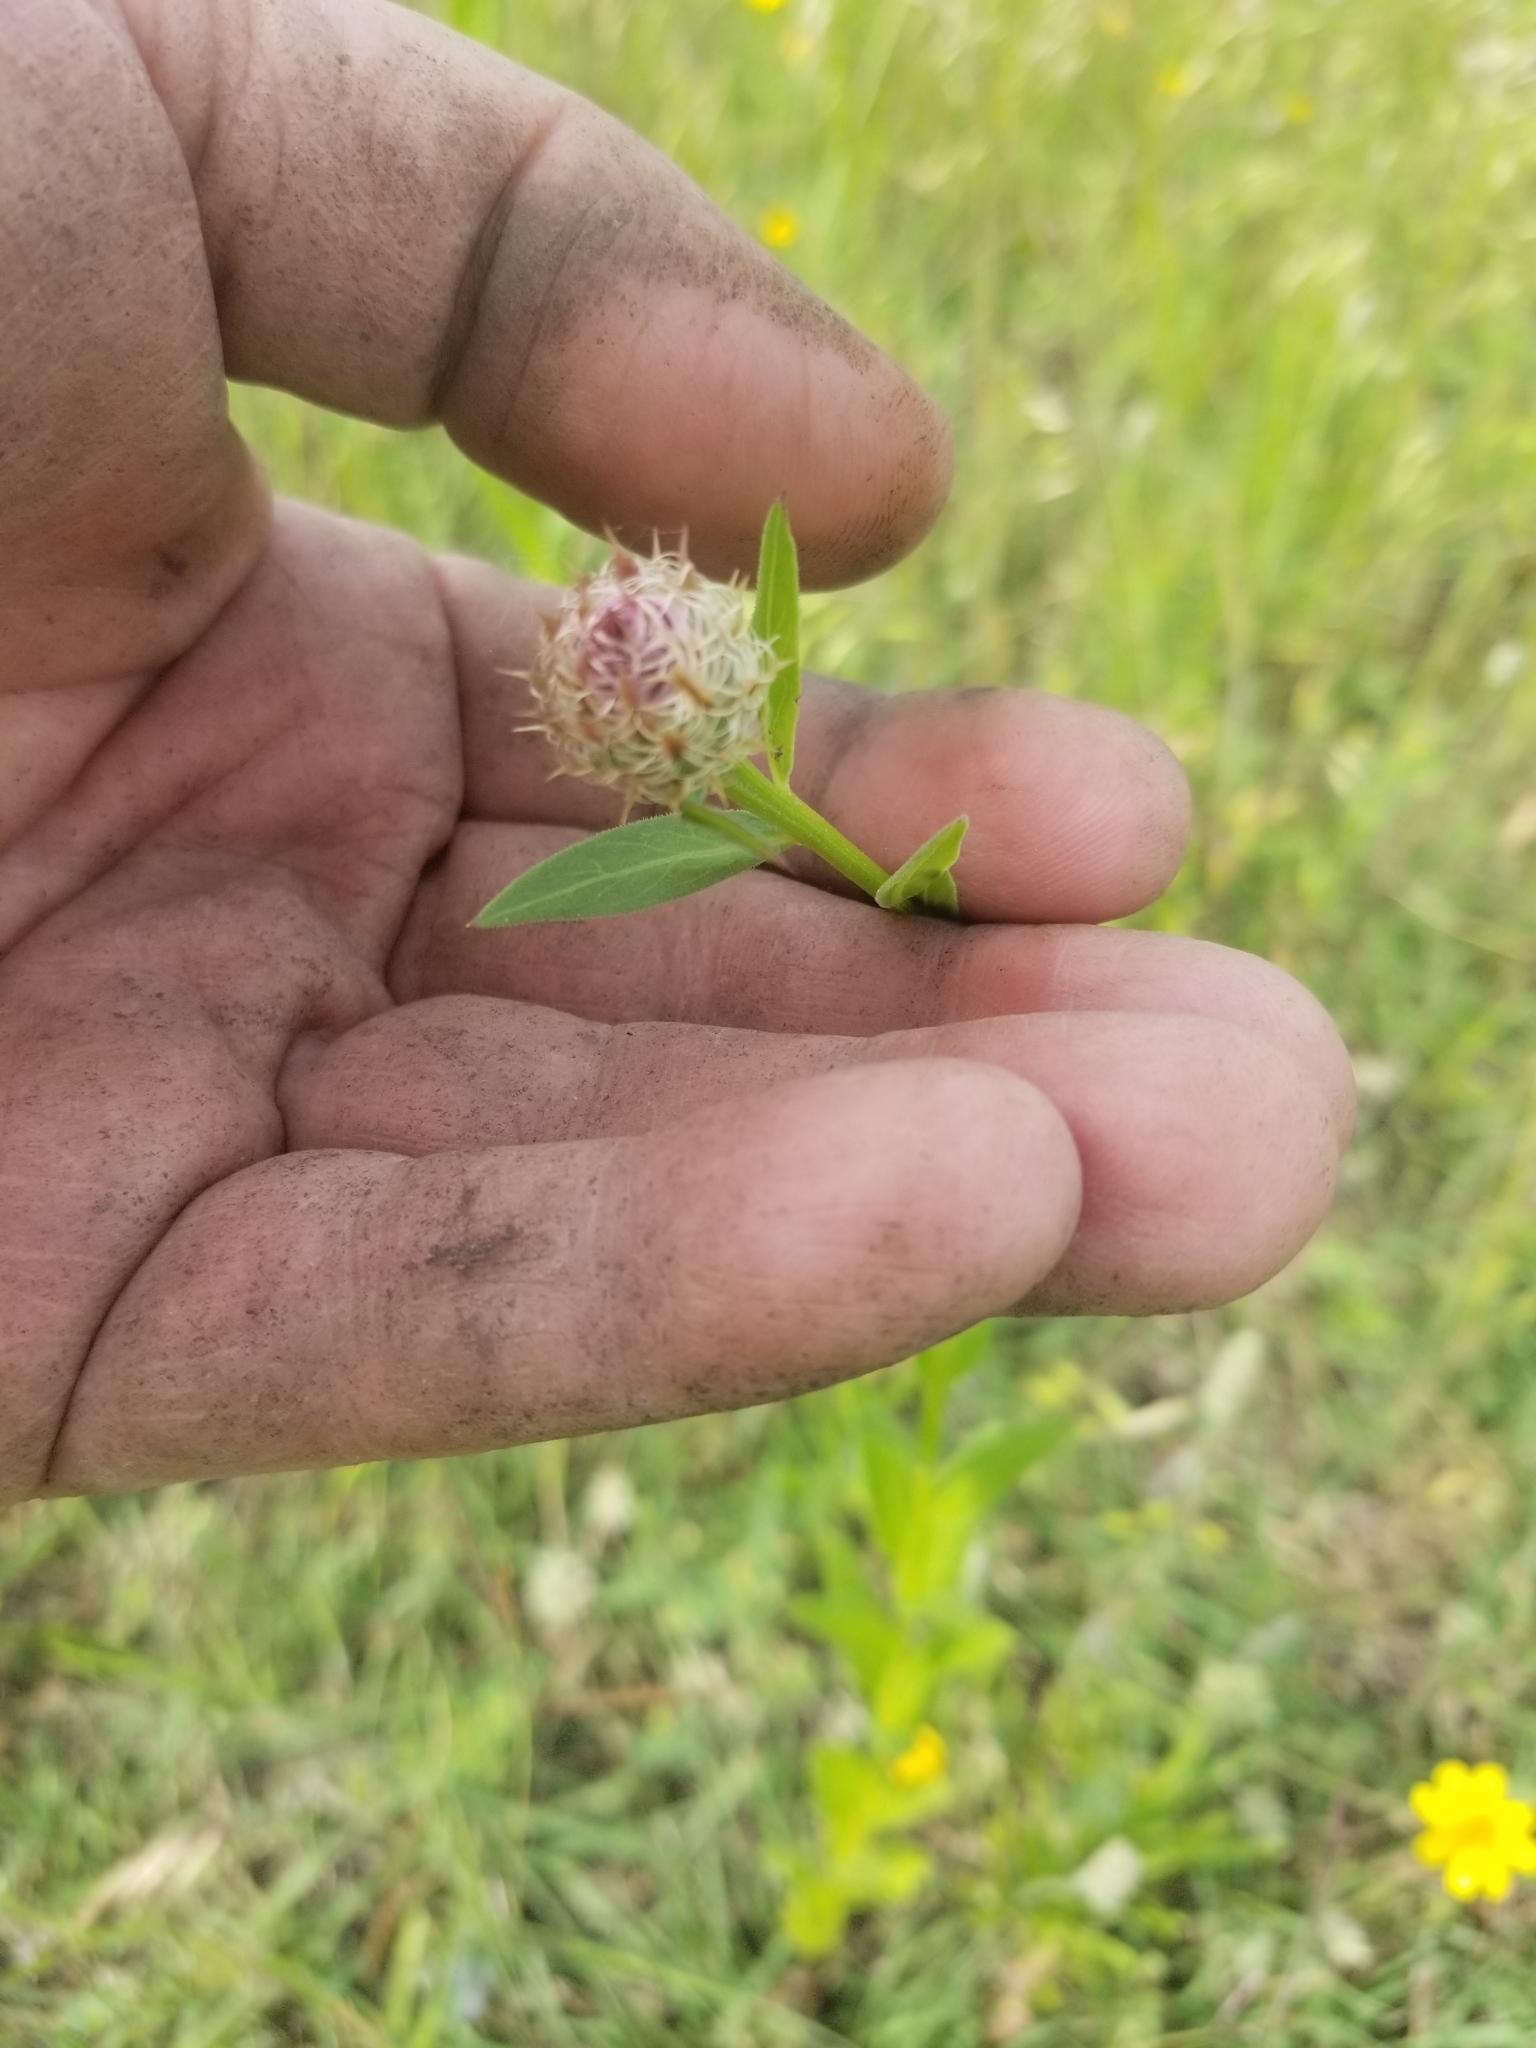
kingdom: Plantae
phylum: Tracheophyta
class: Magnoliopsida
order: Asterales
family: Asteraceae
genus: Plectocephalus
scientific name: Plectocephalus americanus
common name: American basket-flower
